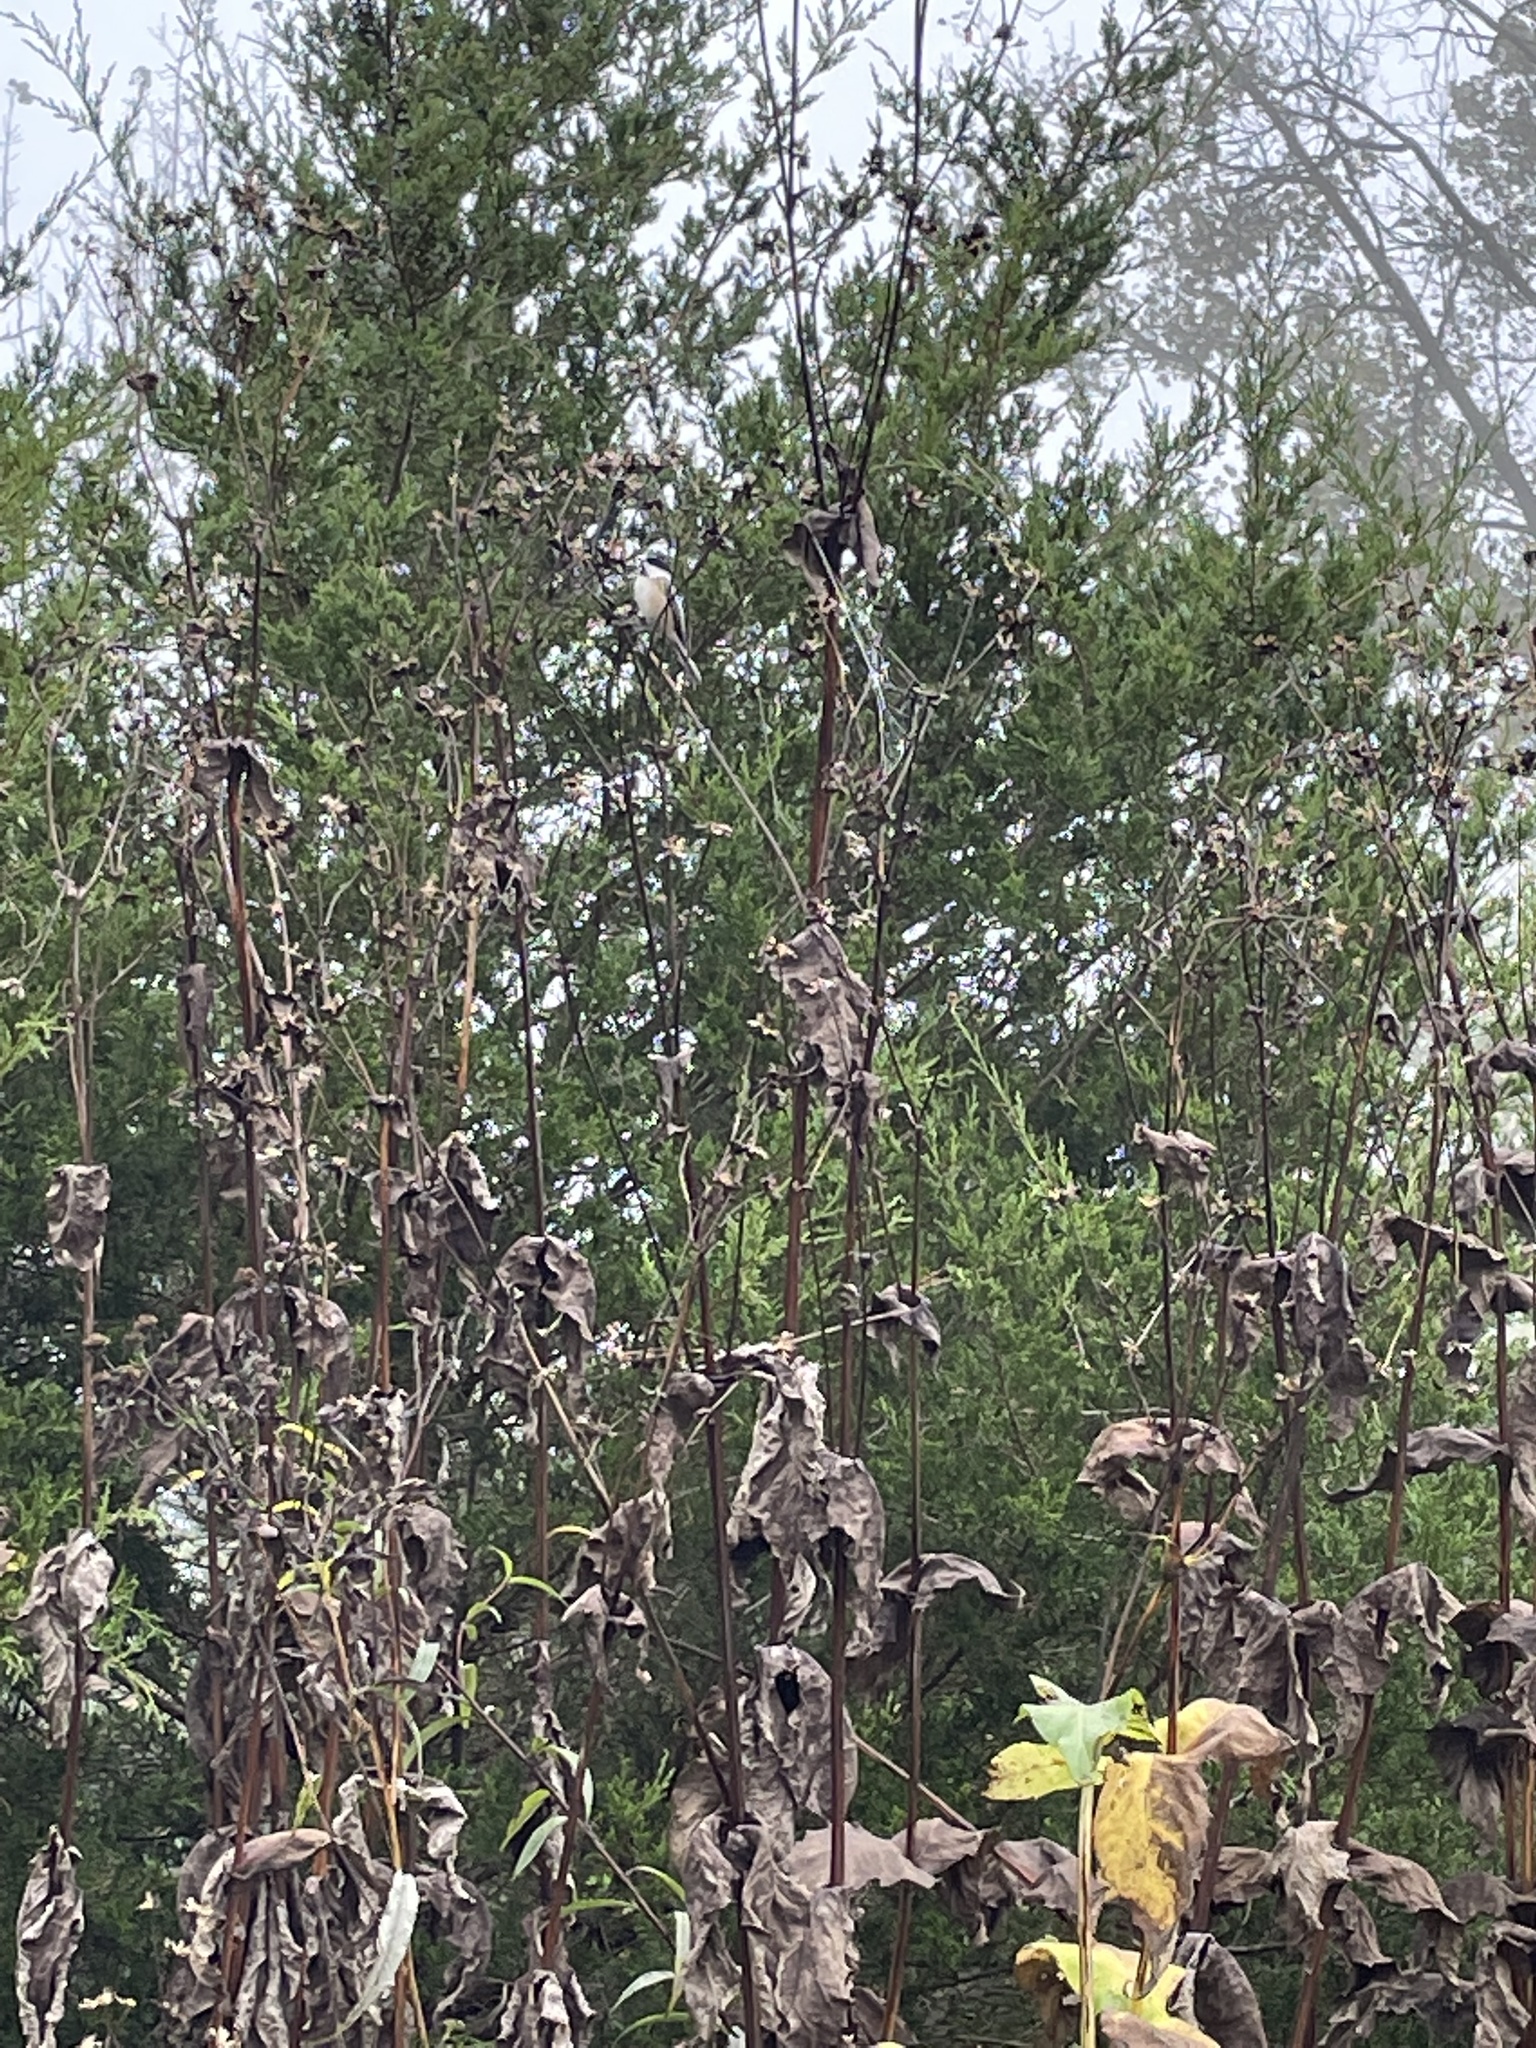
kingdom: Animalia
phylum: Chordata
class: Aves
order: Passeriformes
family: Paridae
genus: Poecile
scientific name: Poecile atricapillus
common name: Black-capped chickadee
